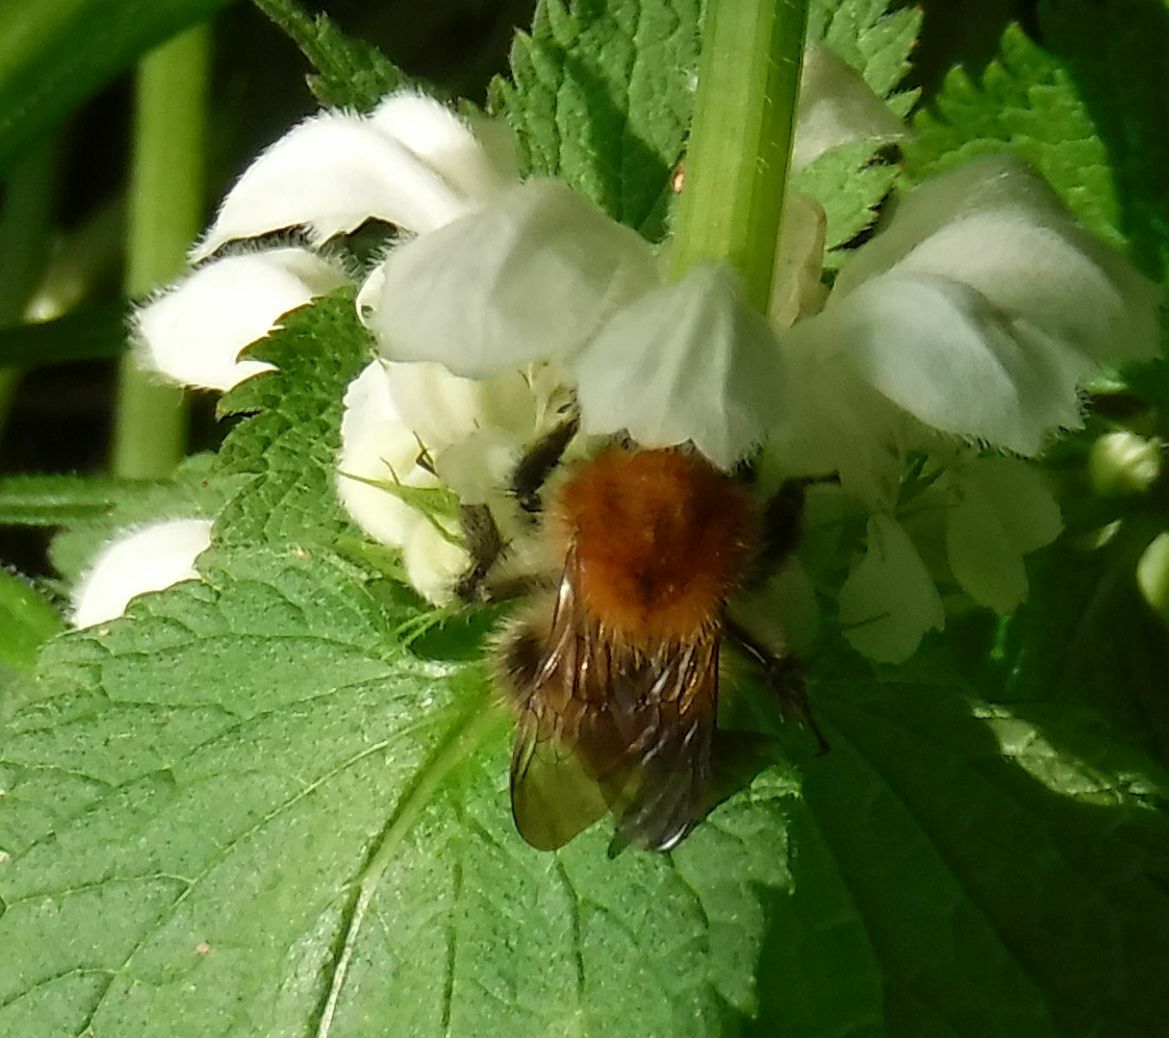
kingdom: Animalia
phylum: Arthropoda
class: Insecta
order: Hymenoptera
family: Apidae
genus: Bombus
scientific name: Bombus pascuorum
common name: Common carder bee
